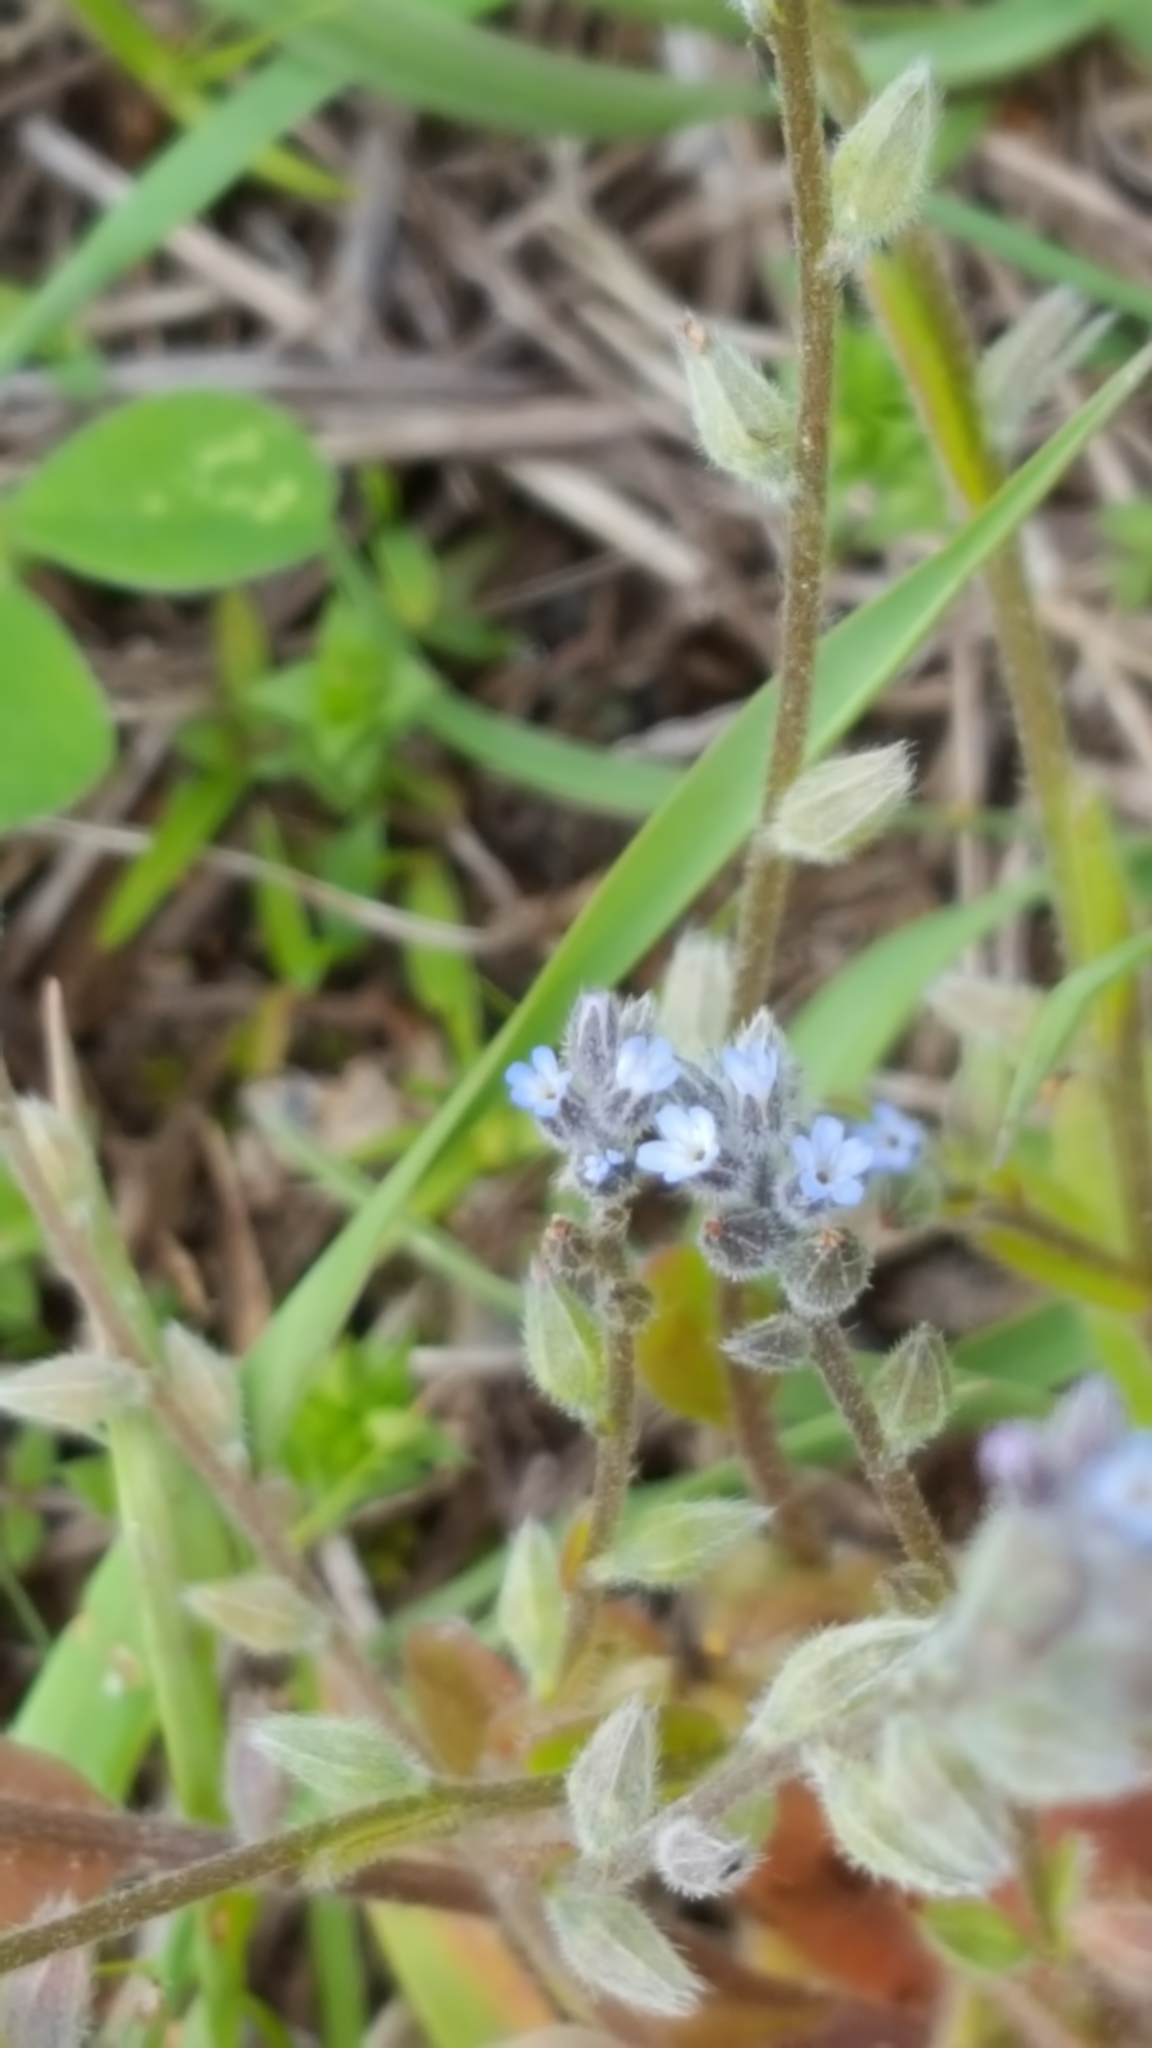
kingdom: Plantae
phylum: Tracheophyta
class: Magnoliopsida
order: Boraginales
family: Boraginaceae
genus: Myosotis
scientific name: Myosotis stricta
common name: Strict forget-me-not
